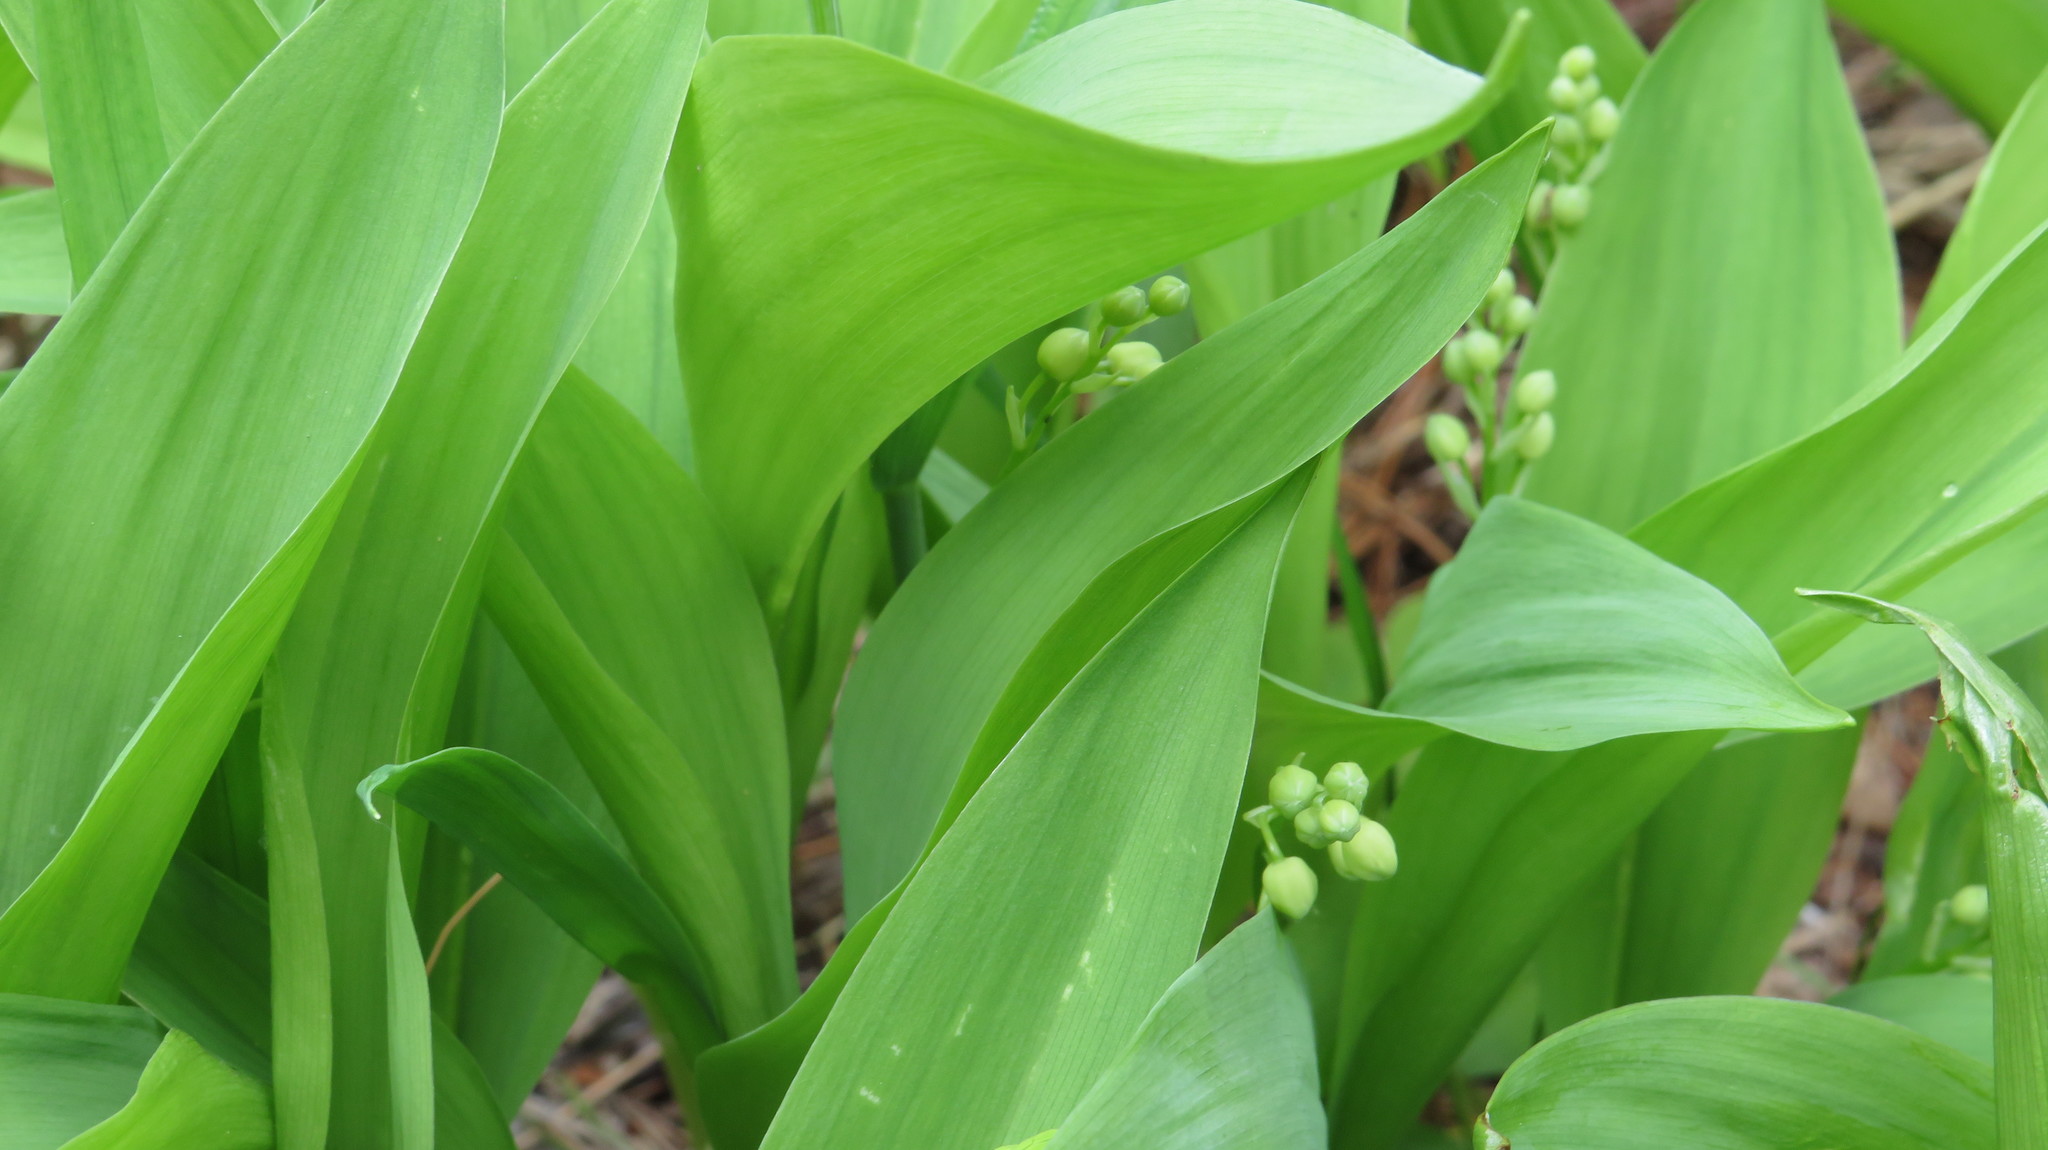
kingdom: Plantae
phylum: Tracheophyta
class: Liliopsida
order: Asparagales
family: Asparagaceae
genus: Convallaria
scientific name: Convallaria majalis
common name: Lily-of-the-valley
